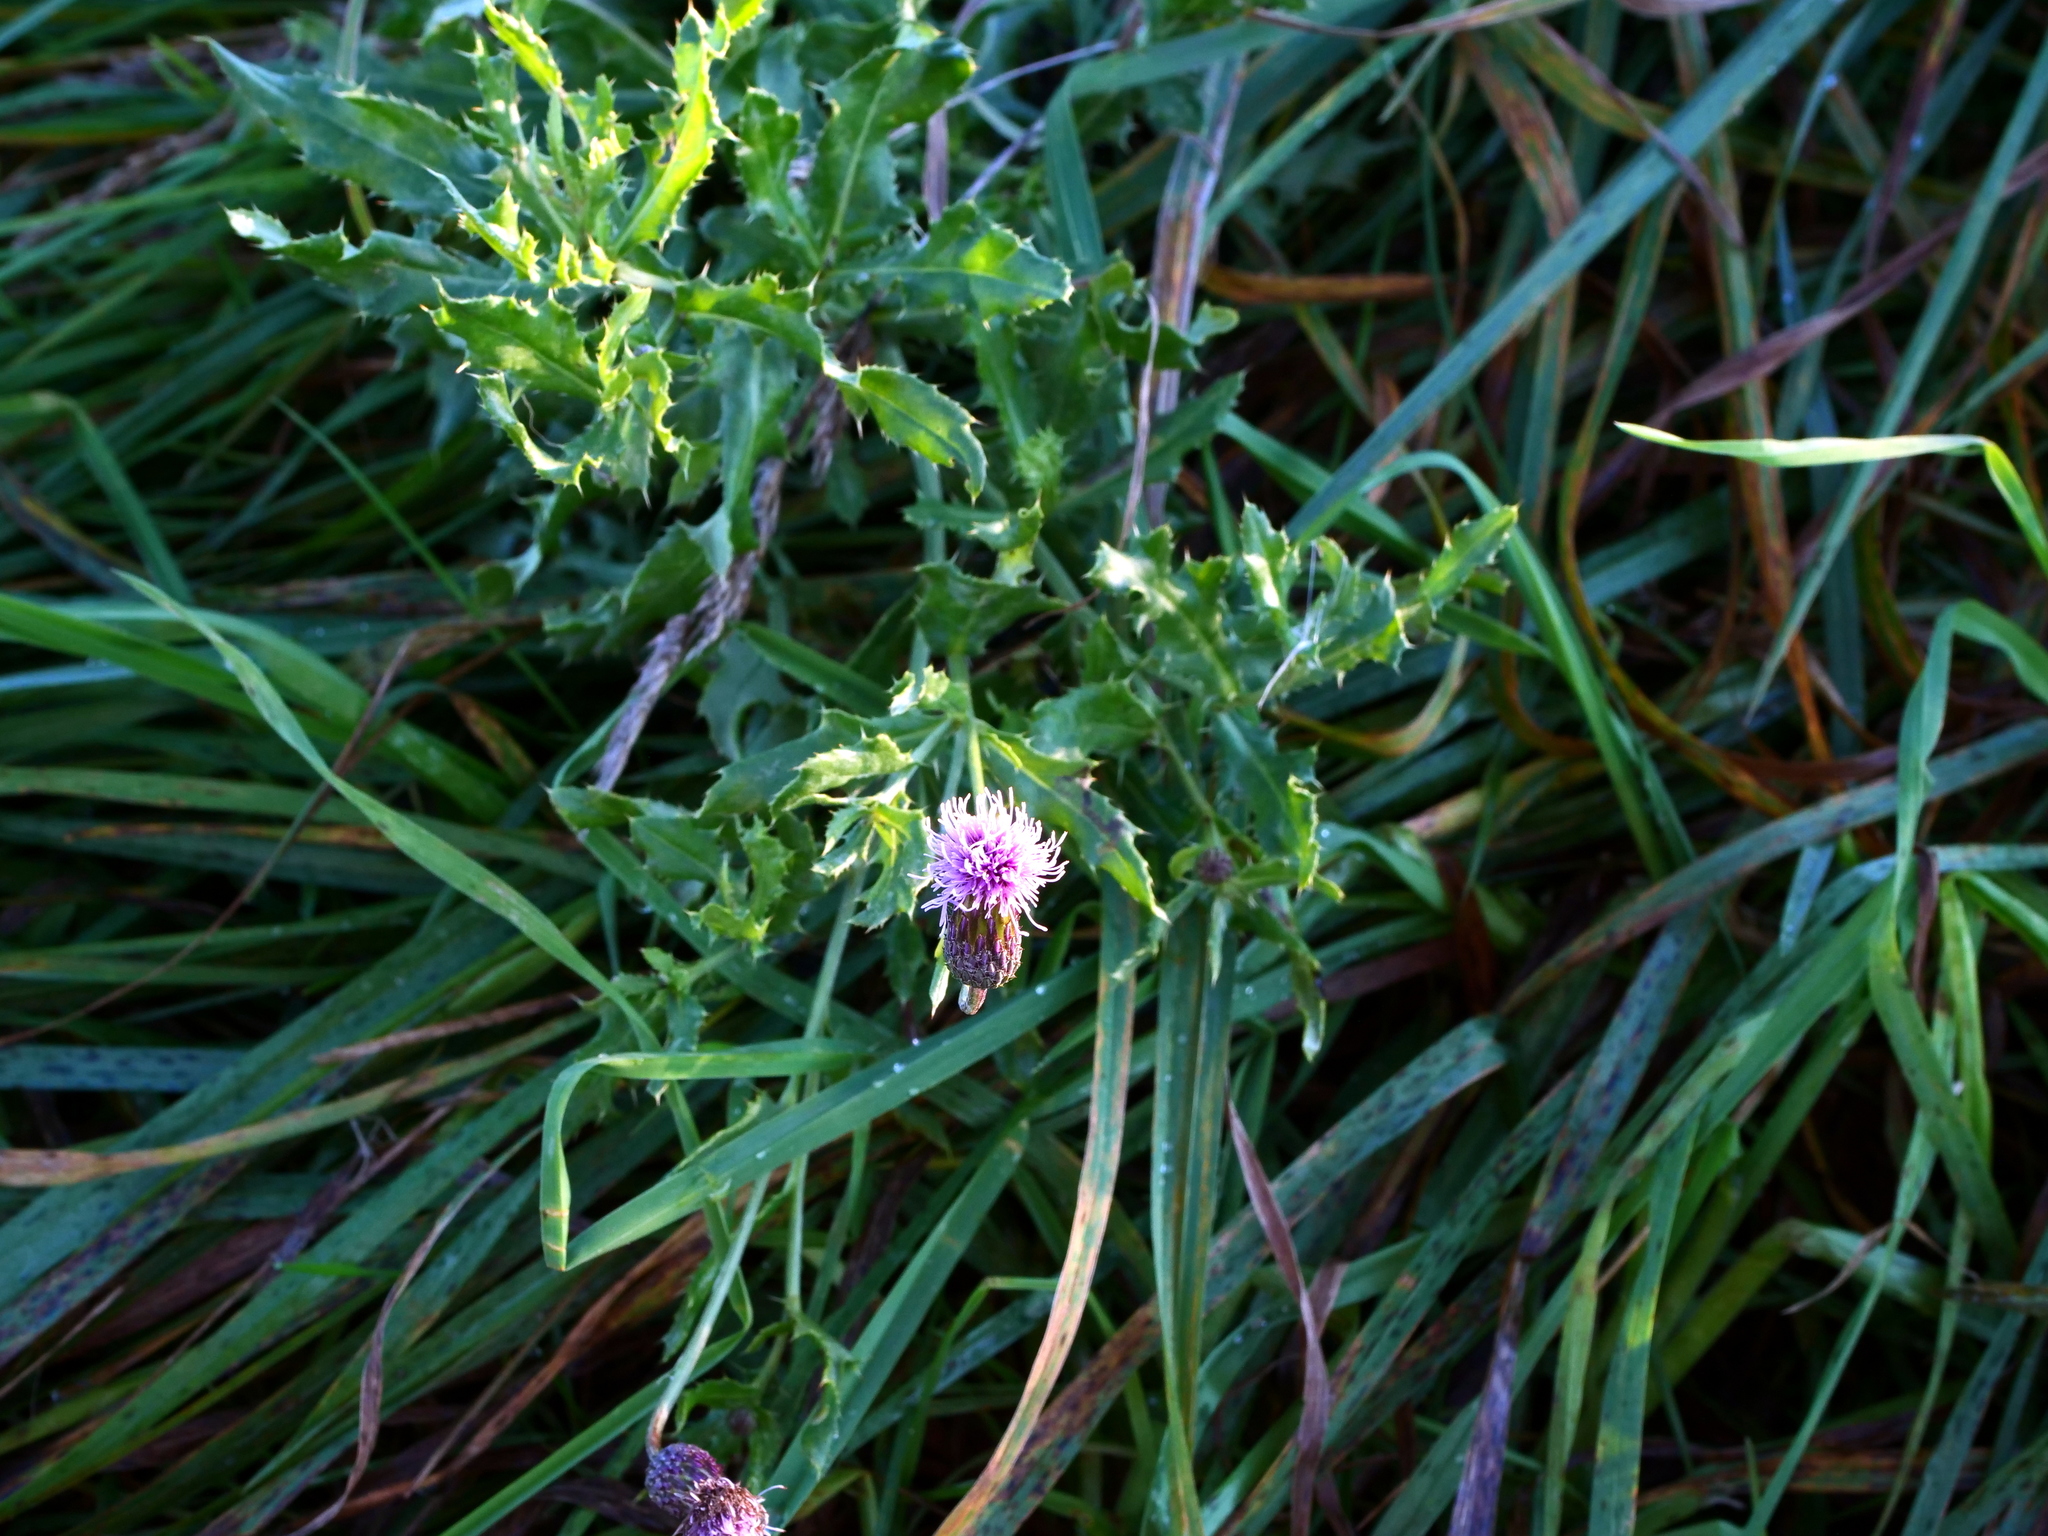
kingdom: Plantae
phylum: Tracheophyta
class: Magnoliopsida
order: Asterales
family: Asteraceae
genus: Cirsium
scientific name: Cirsium arvense
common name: Creeping thistle
